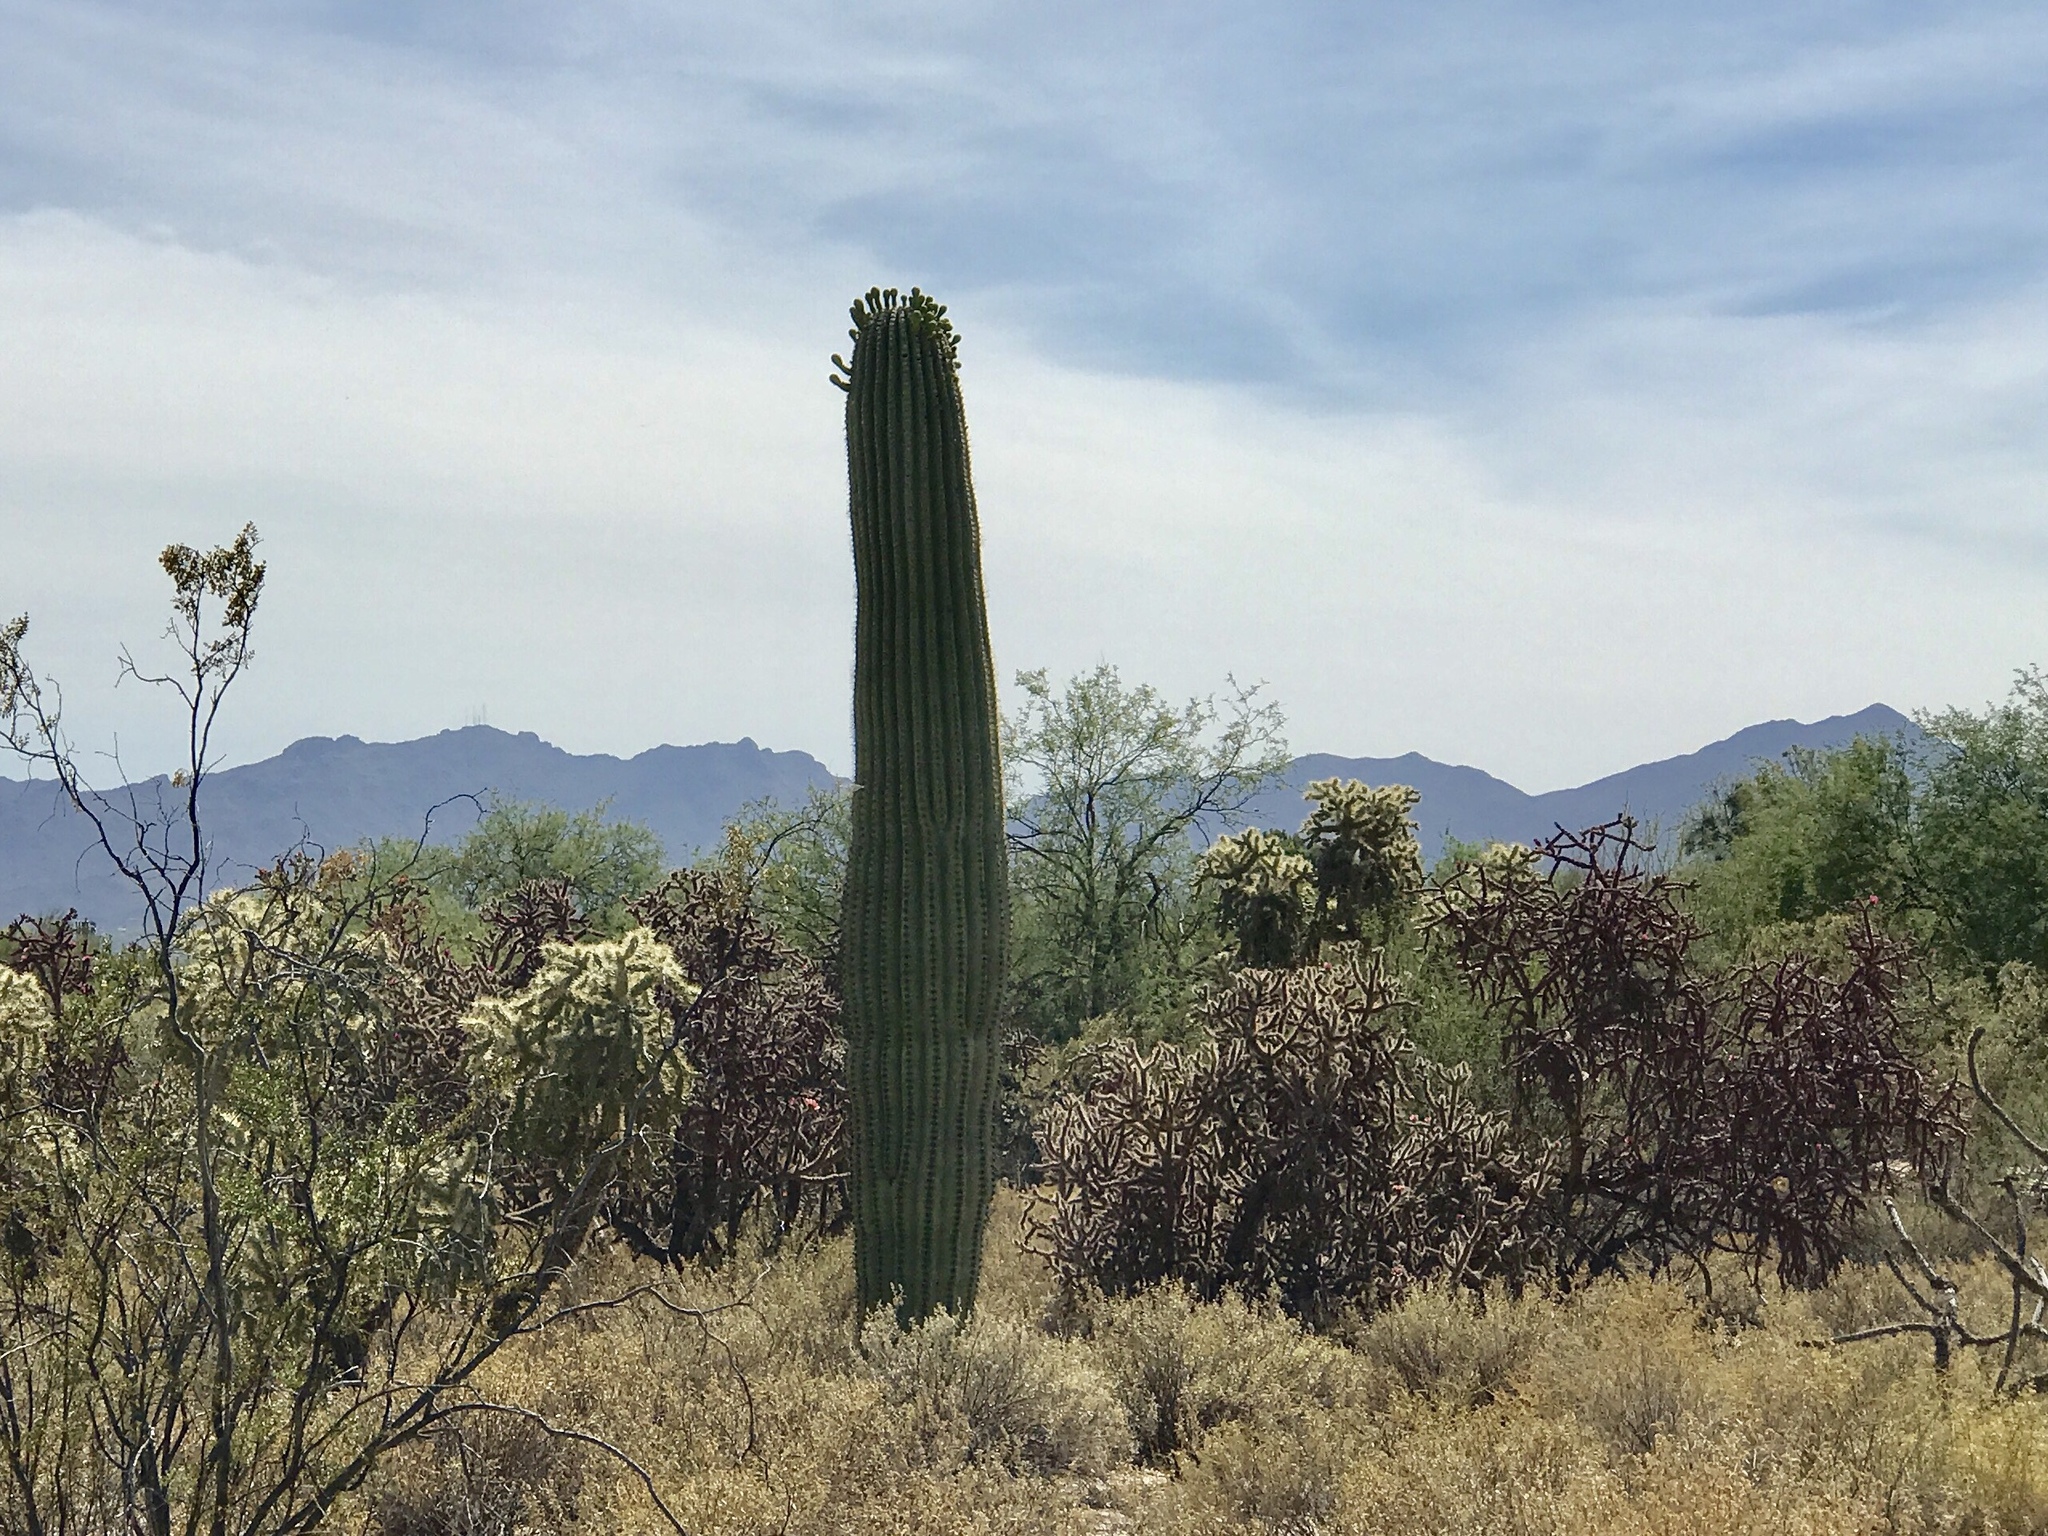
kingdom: Plantae
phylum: Tracheophyta
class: Magnoliopsida
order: Caryophyllales
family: Cactaceae
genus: Carnegiea
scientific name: Carnegiea gigantea
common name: Saguaro
